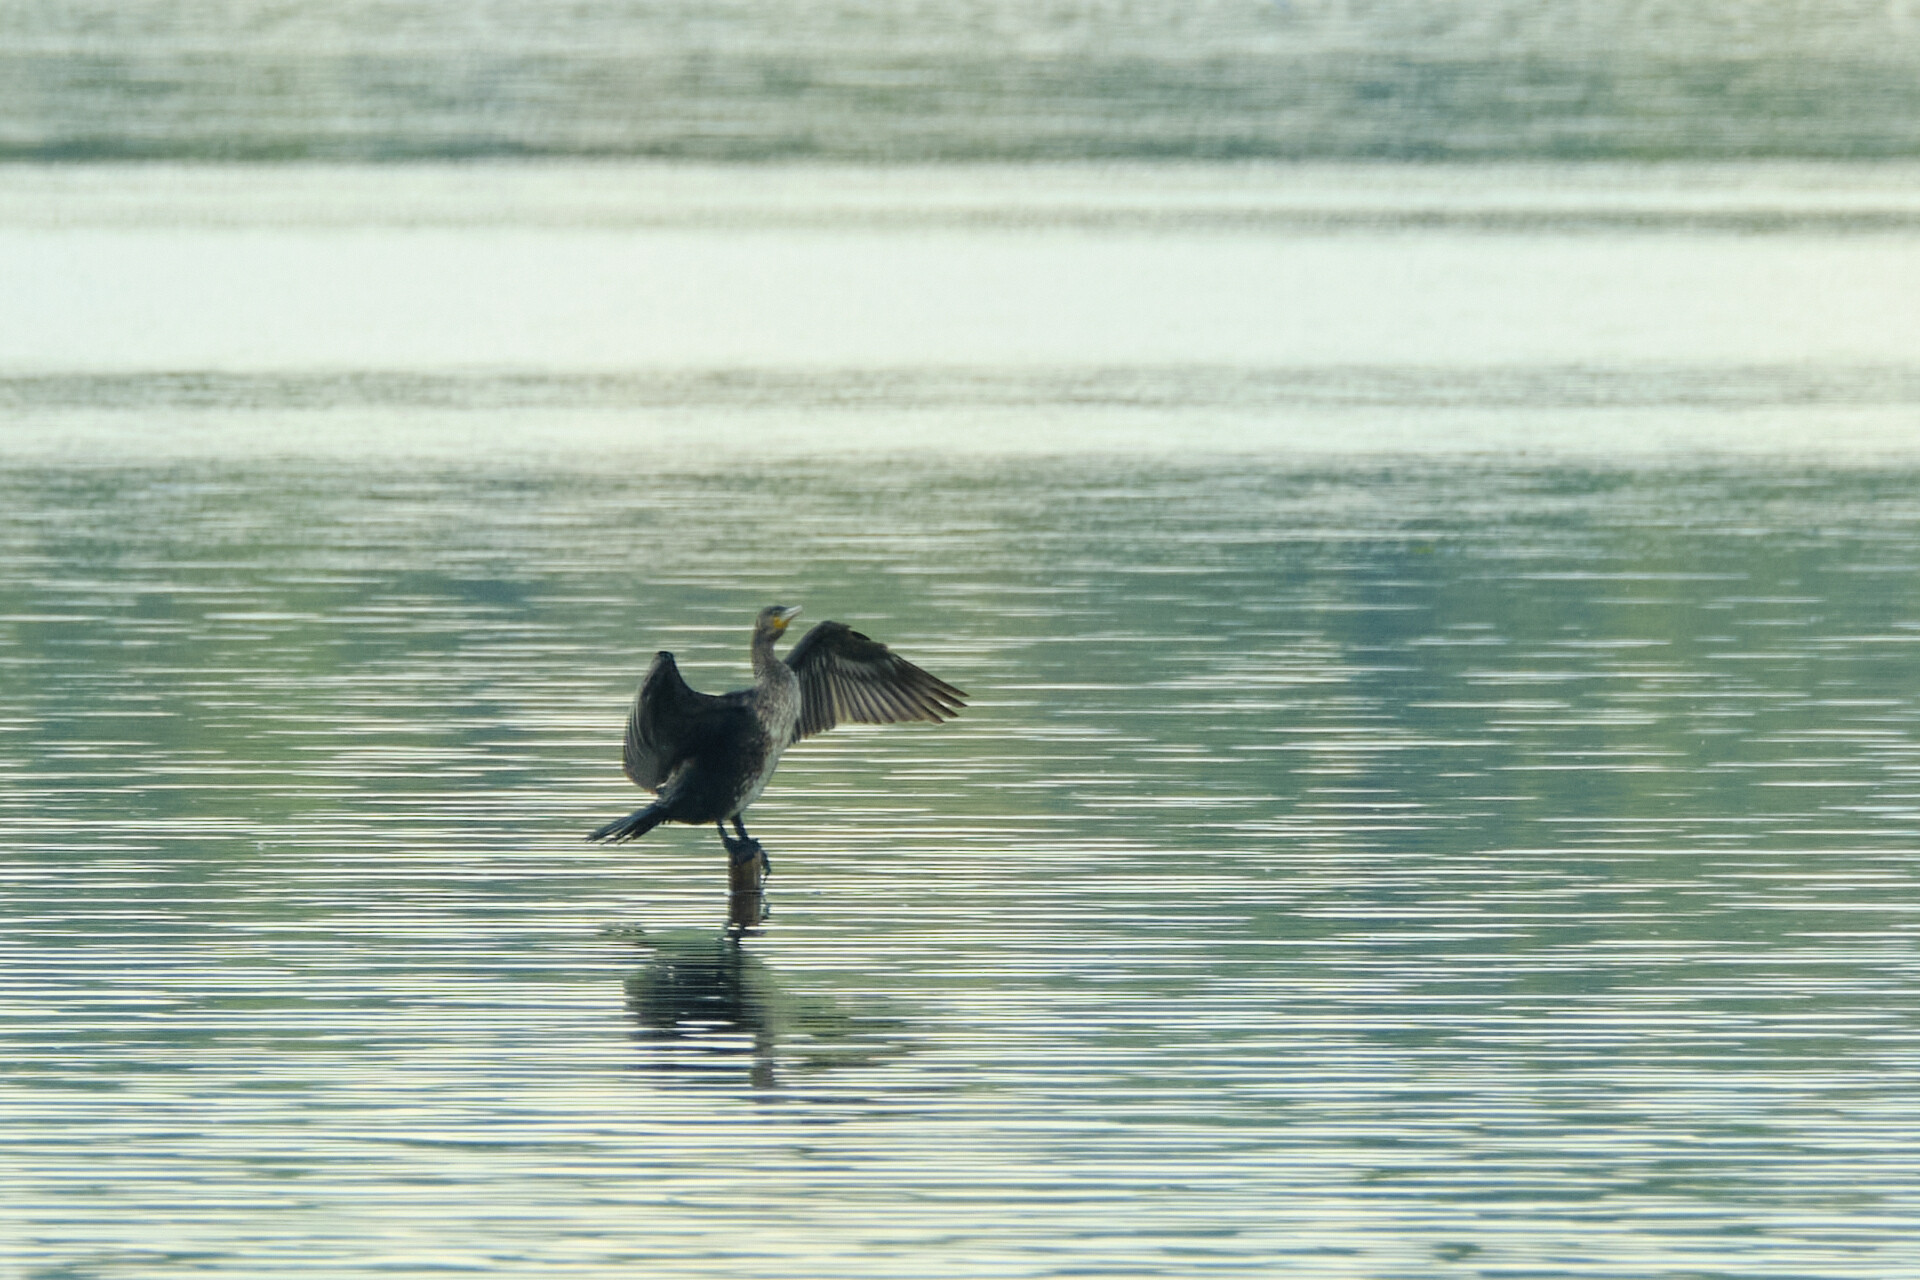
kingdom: Animalia
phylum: Chordata
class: Aves
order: Suliformes
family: Phalacrocoracidae
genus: Phalacrocorax
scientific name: Phalacrocorax carbo
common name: Great cormorant
